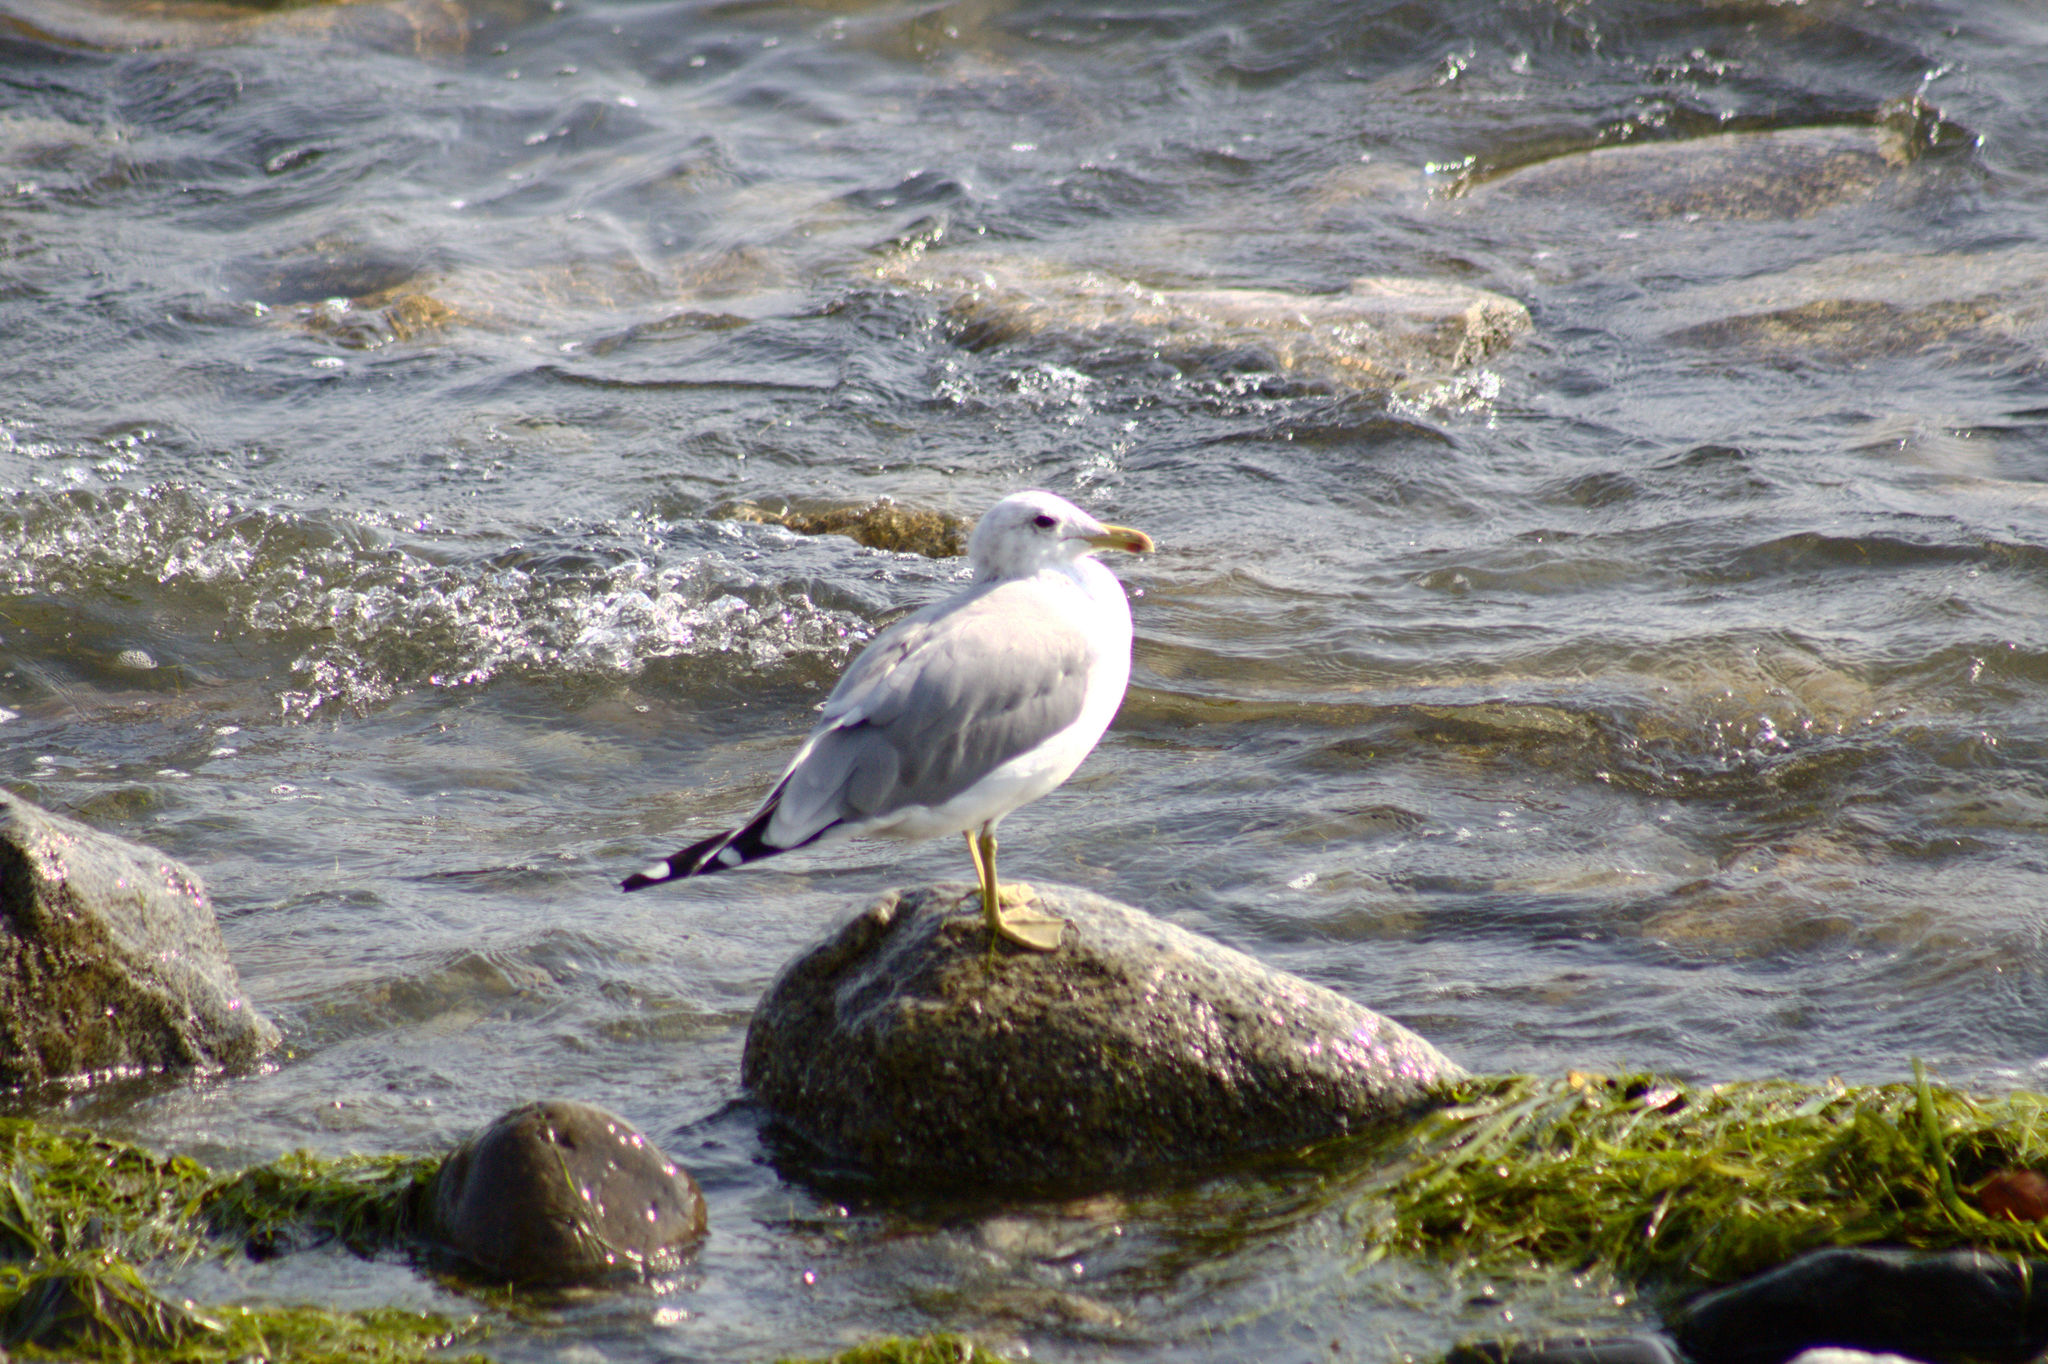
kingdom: Animalia
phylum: Chordata
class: Aves
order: Charadriiformes
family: Laridae
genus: Larus
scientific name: Larus californicus
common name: California gull
